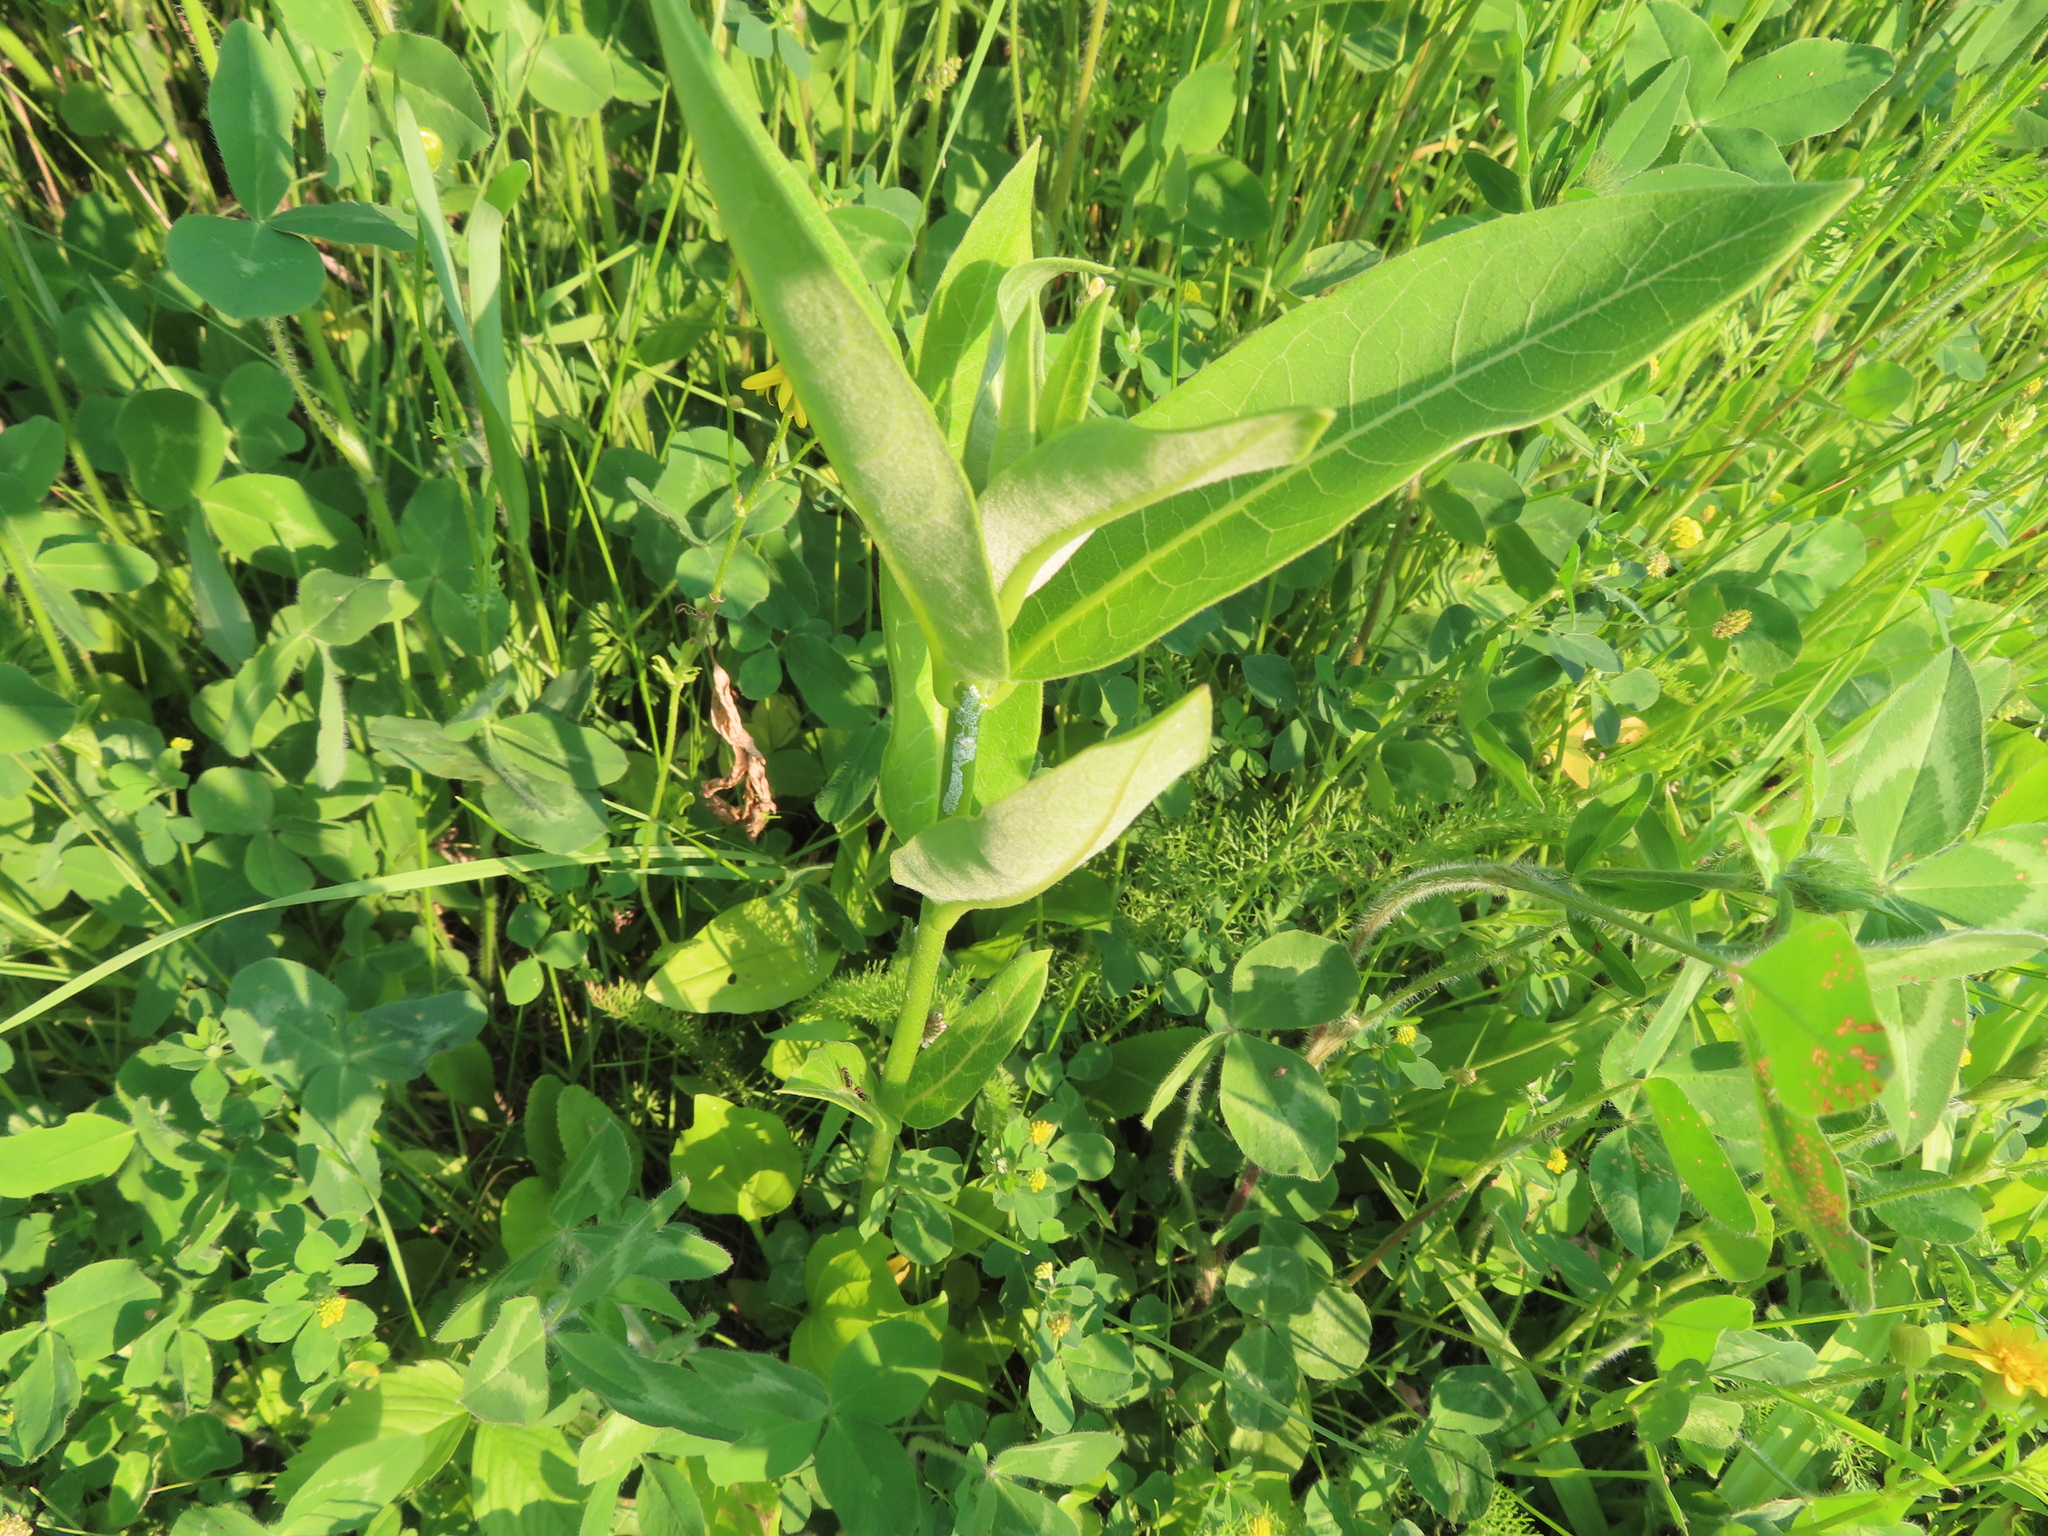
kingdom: Plantae
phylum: Tracheophyta
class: Magnoliopsida
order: Gentianales
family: Apocynaceae
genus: Asclepias
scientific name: Asclepias syriaca
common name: Common milkweed
